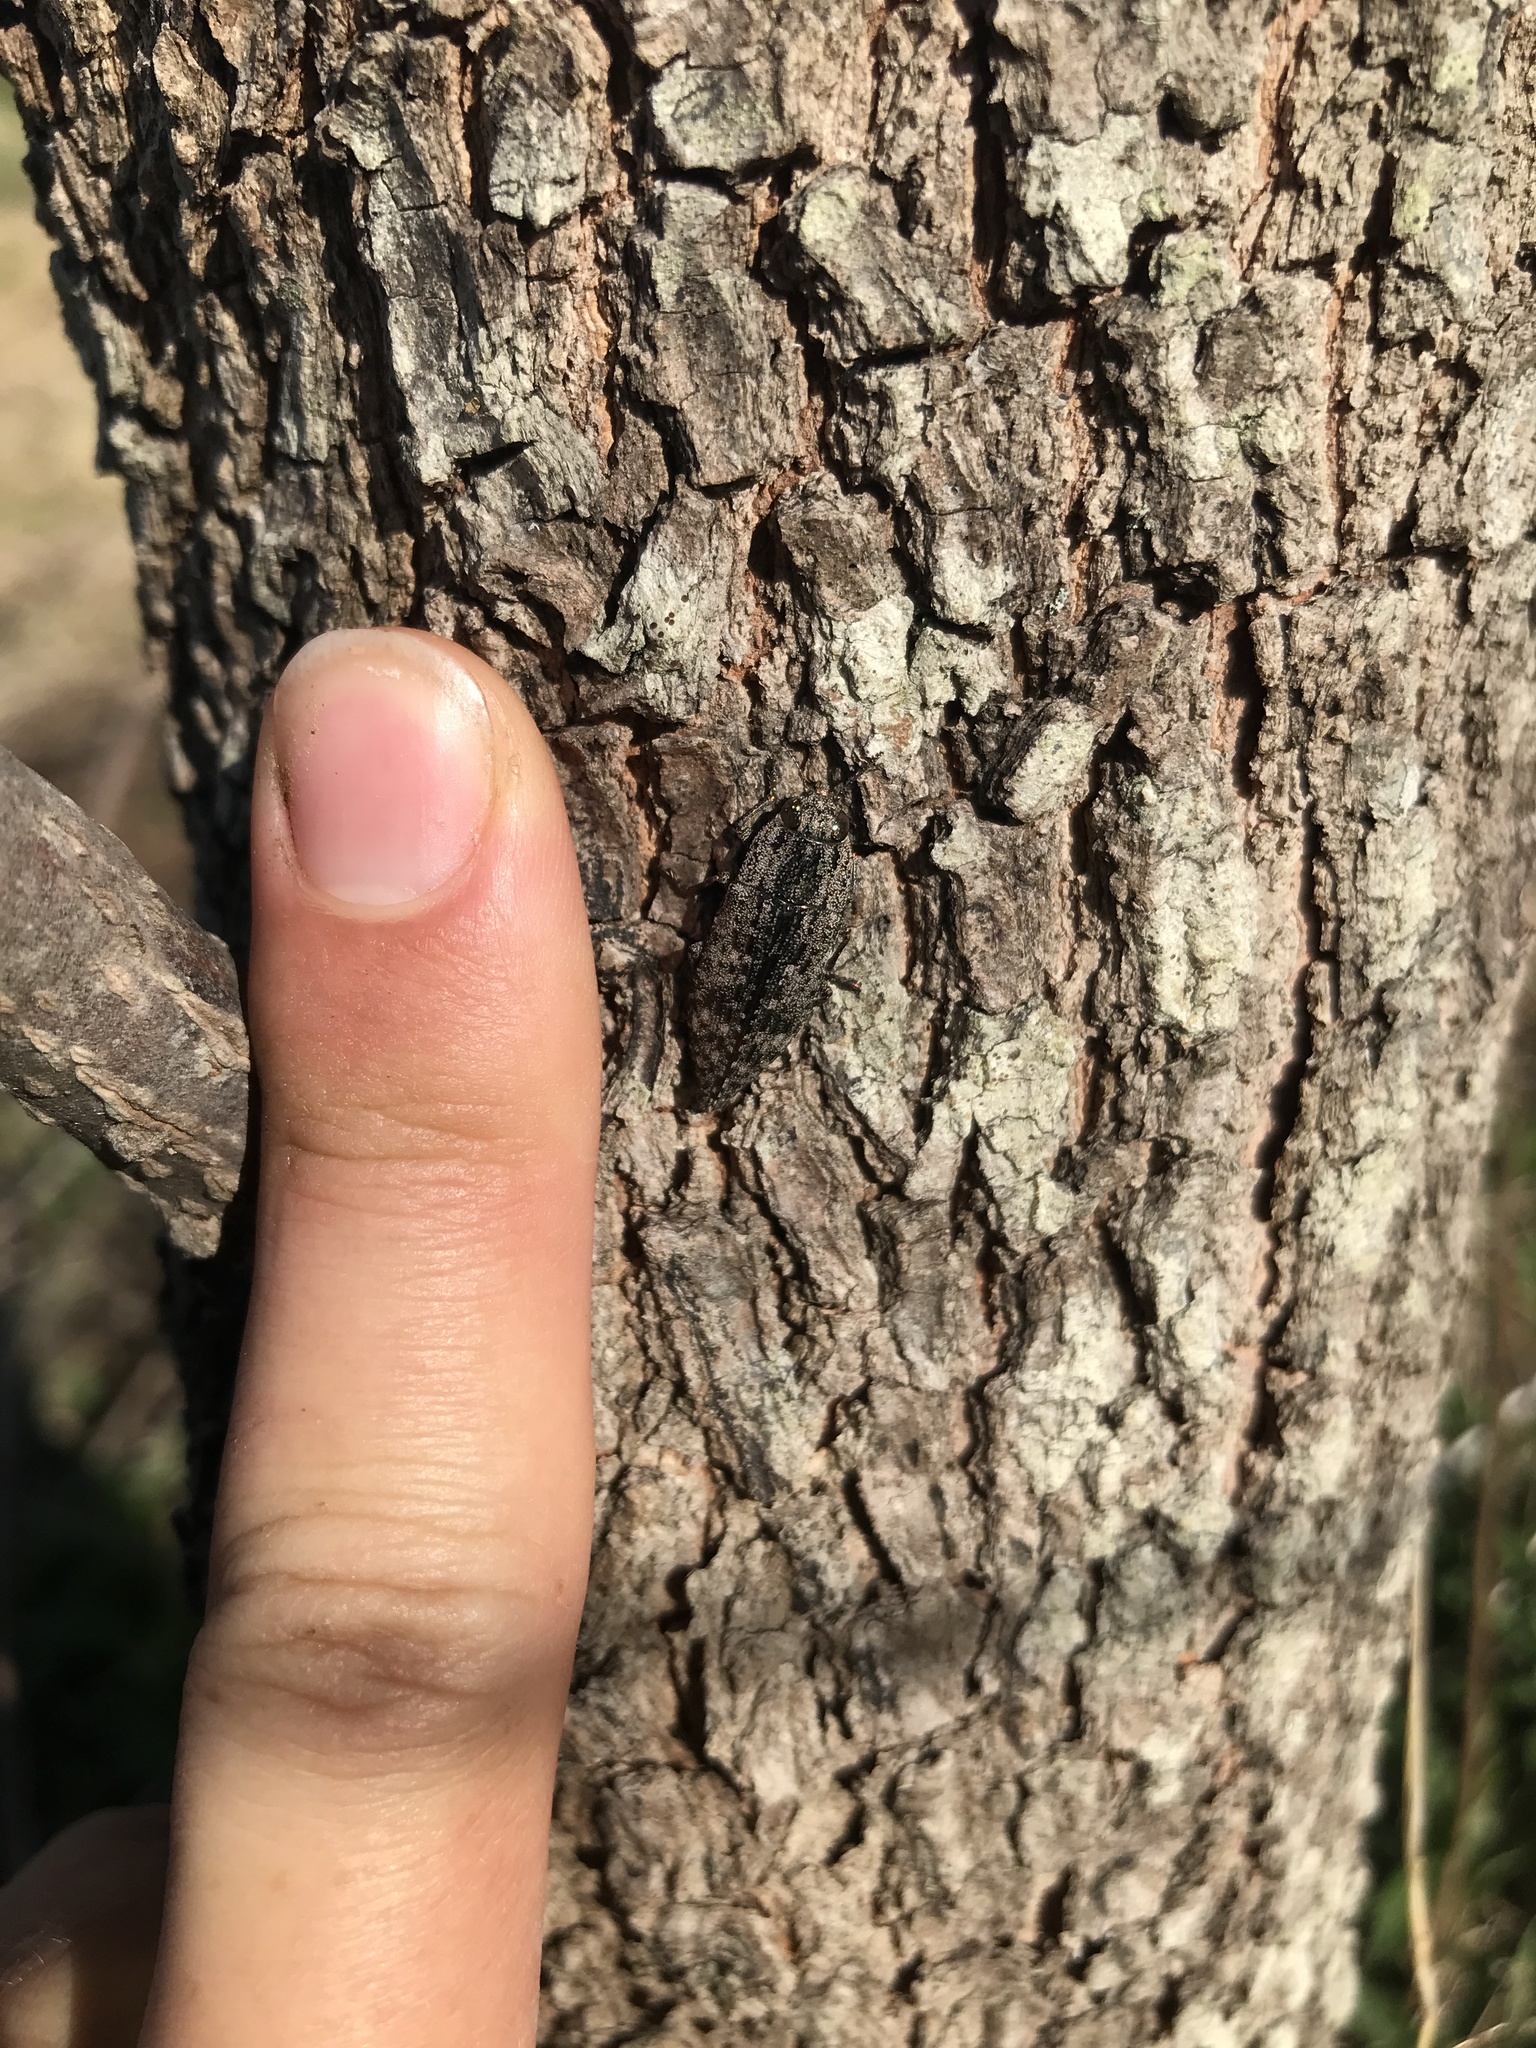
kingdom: Animalia
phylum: Arthropoda
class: Insecta
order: Coleoptera
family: Buprestidae
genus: Dicerca
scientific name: Dicerca obscura
